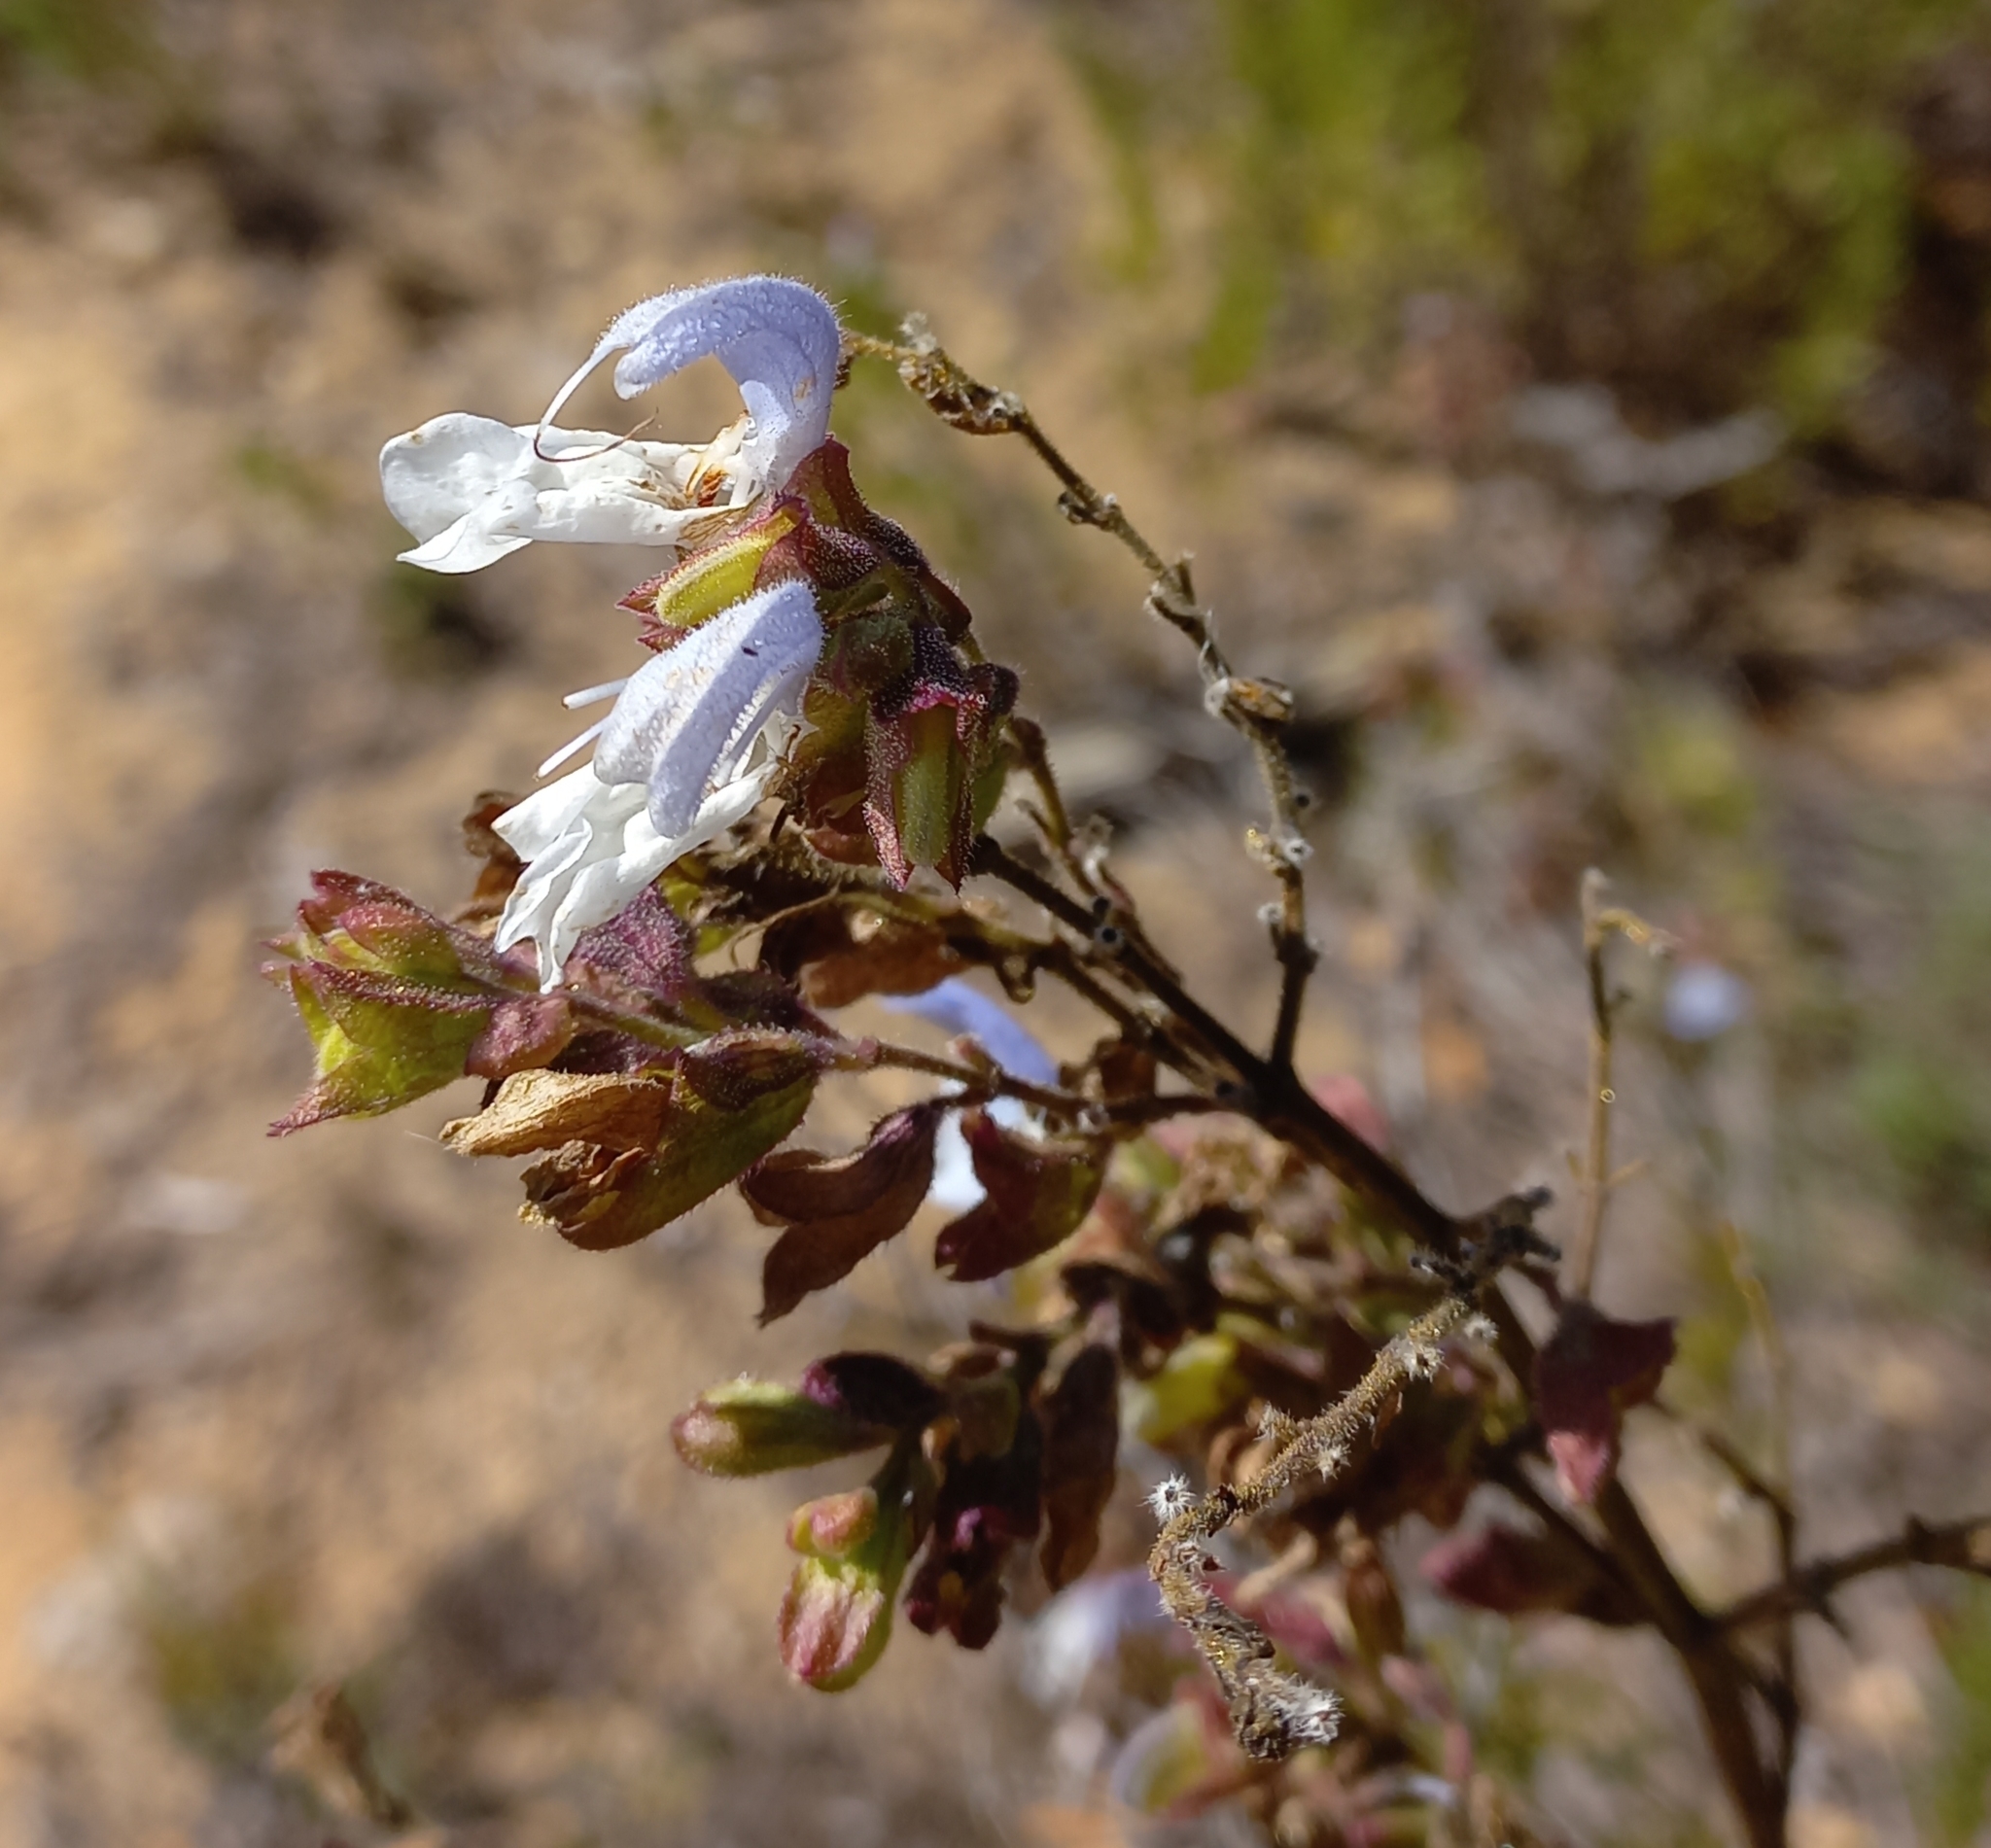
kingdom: Plantae
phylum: Tracheophyta
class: Magnoliopsida
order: Lamiales
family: Lamiaceae
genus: Salvia
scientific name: Salvia chamelaeagnea
